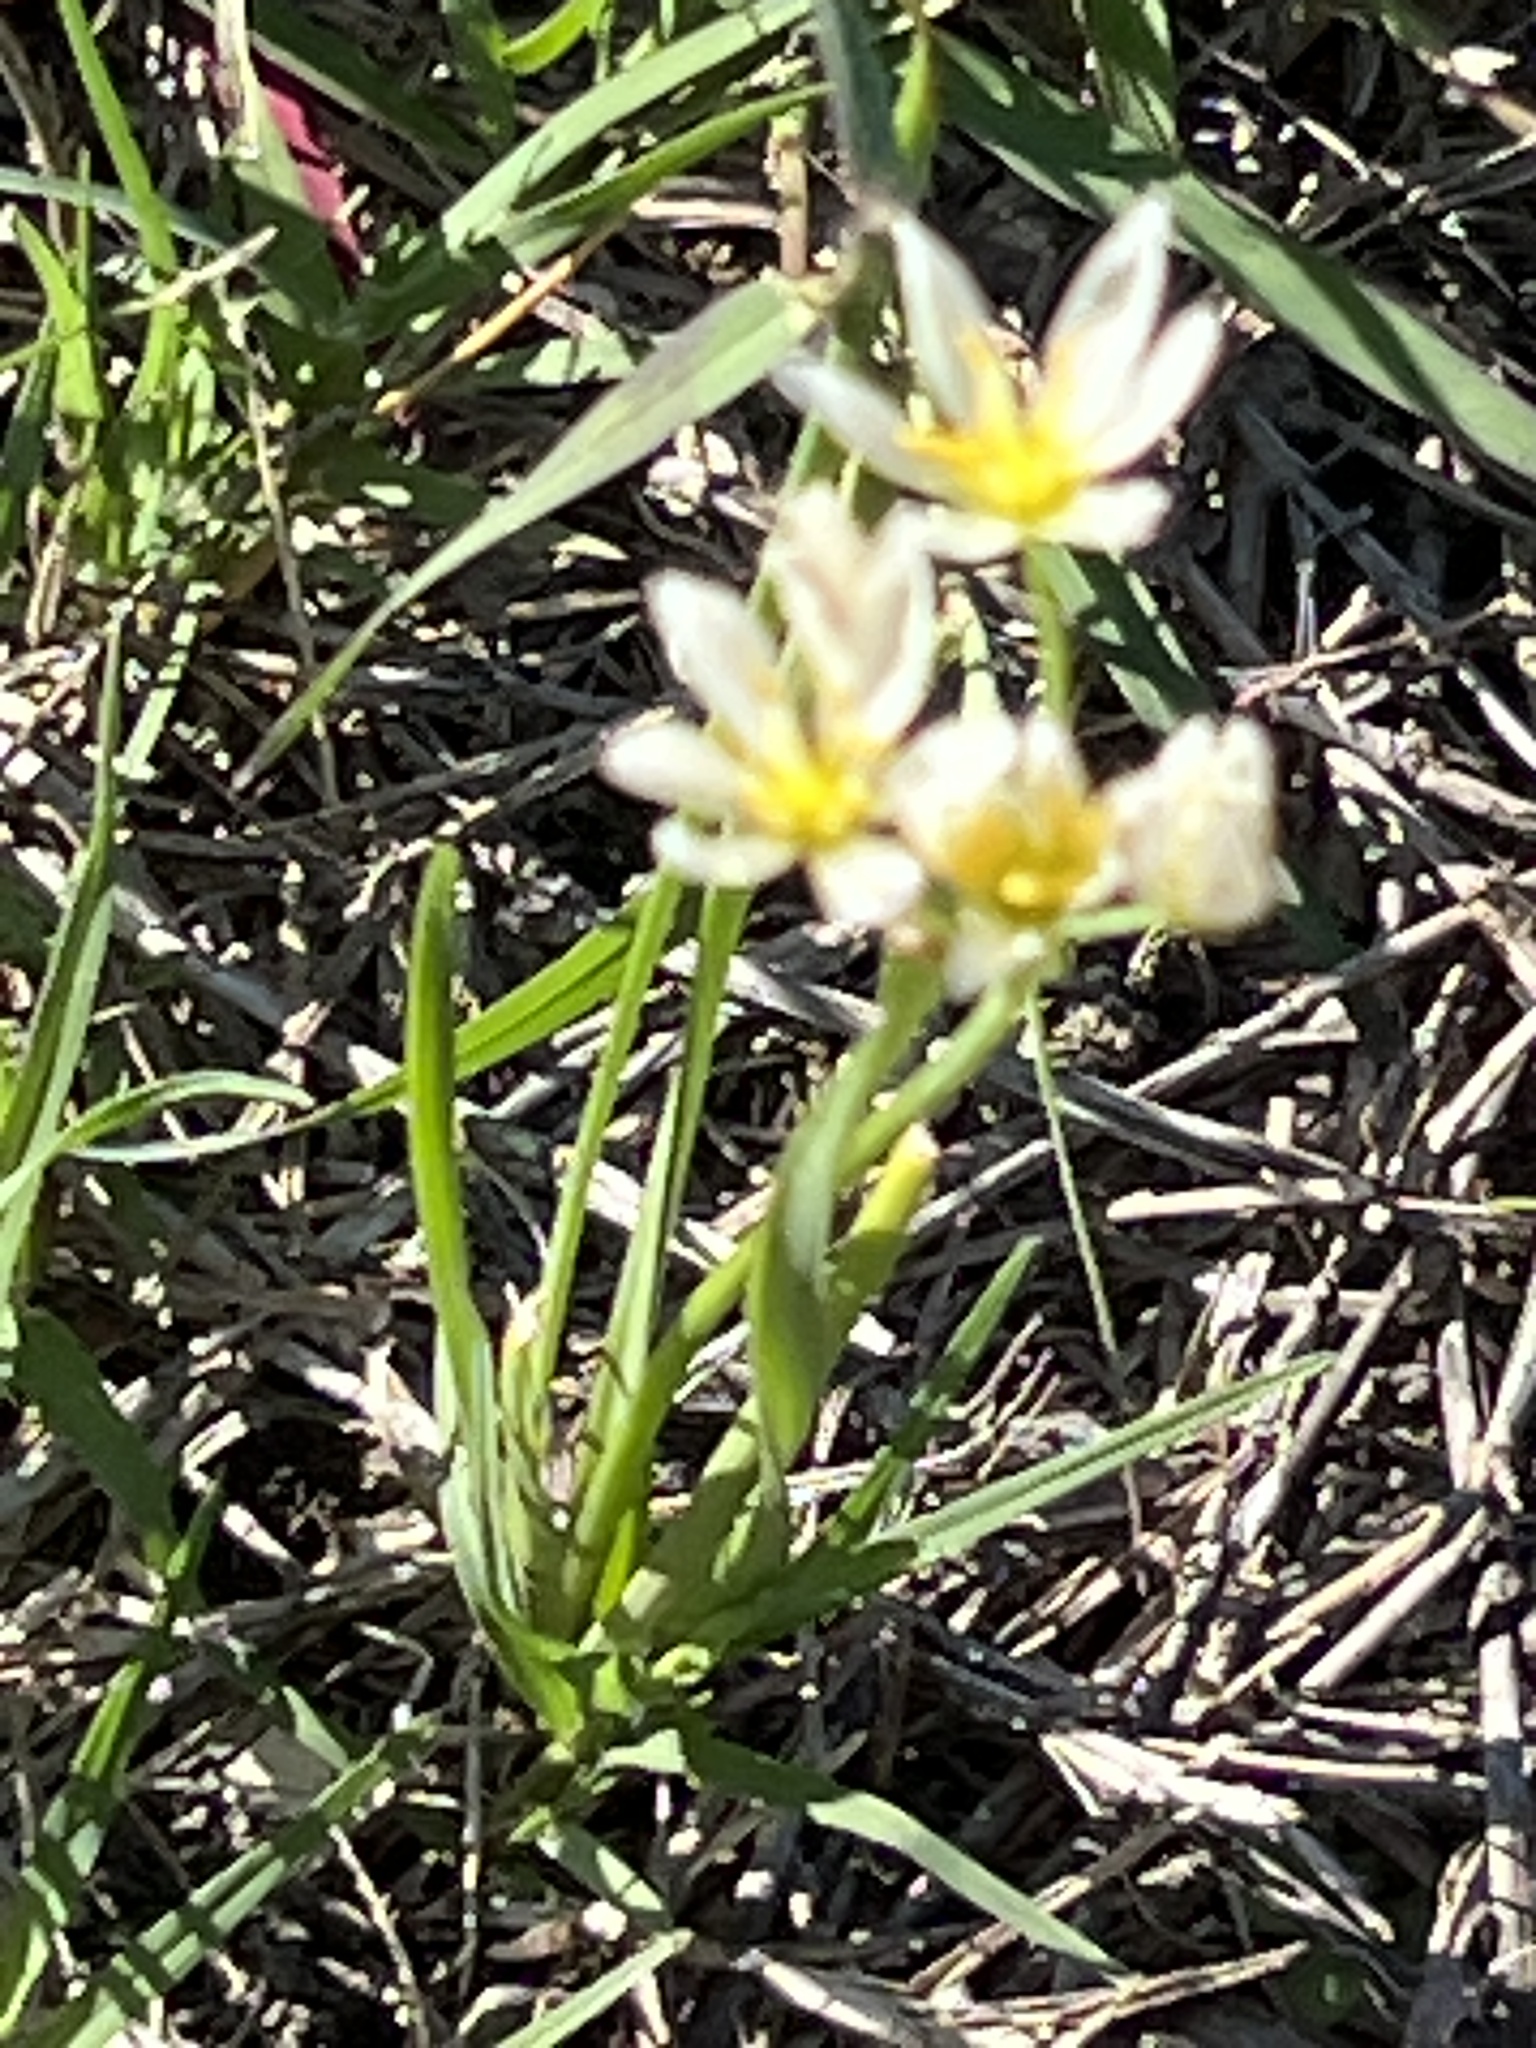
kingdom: Plantae
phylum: Tracheophyta
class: Liliopsida
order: Asparagales
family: Amaryllidaceae
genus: Nothoscordum
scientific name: Nothoscordum bivalve
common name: Crow-poison
